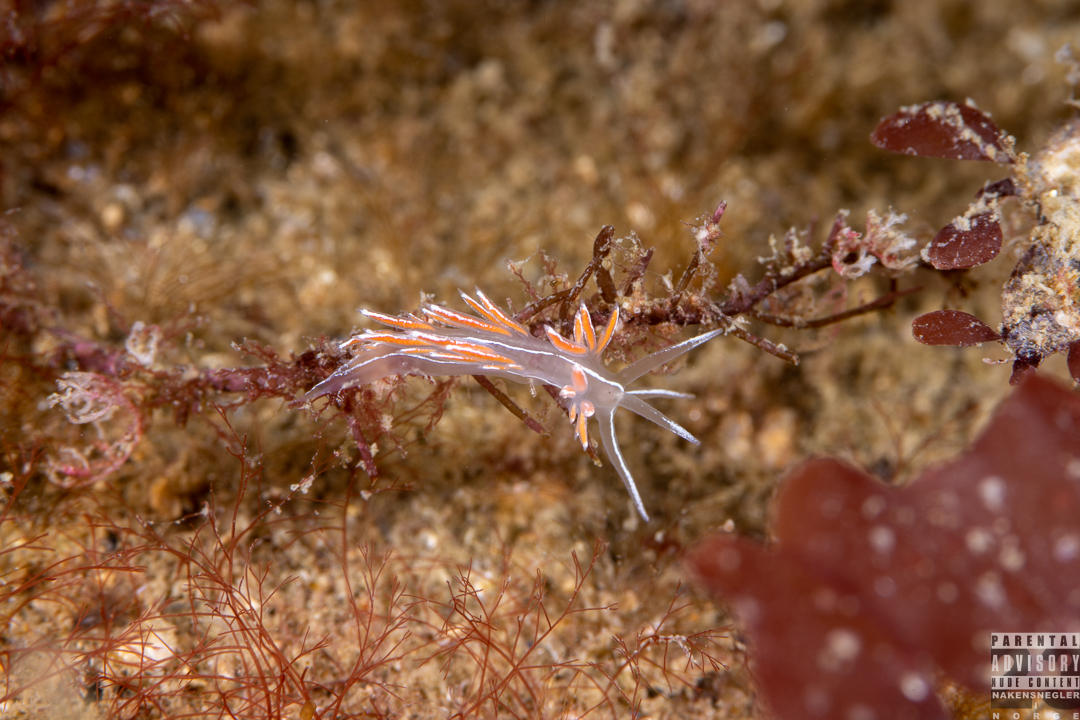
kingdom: Animalia
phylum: Mollusca
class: Gastropoda
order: Nudibranchia
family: Coryphellidae
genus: Coryphella
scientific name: Coryphella lineata
